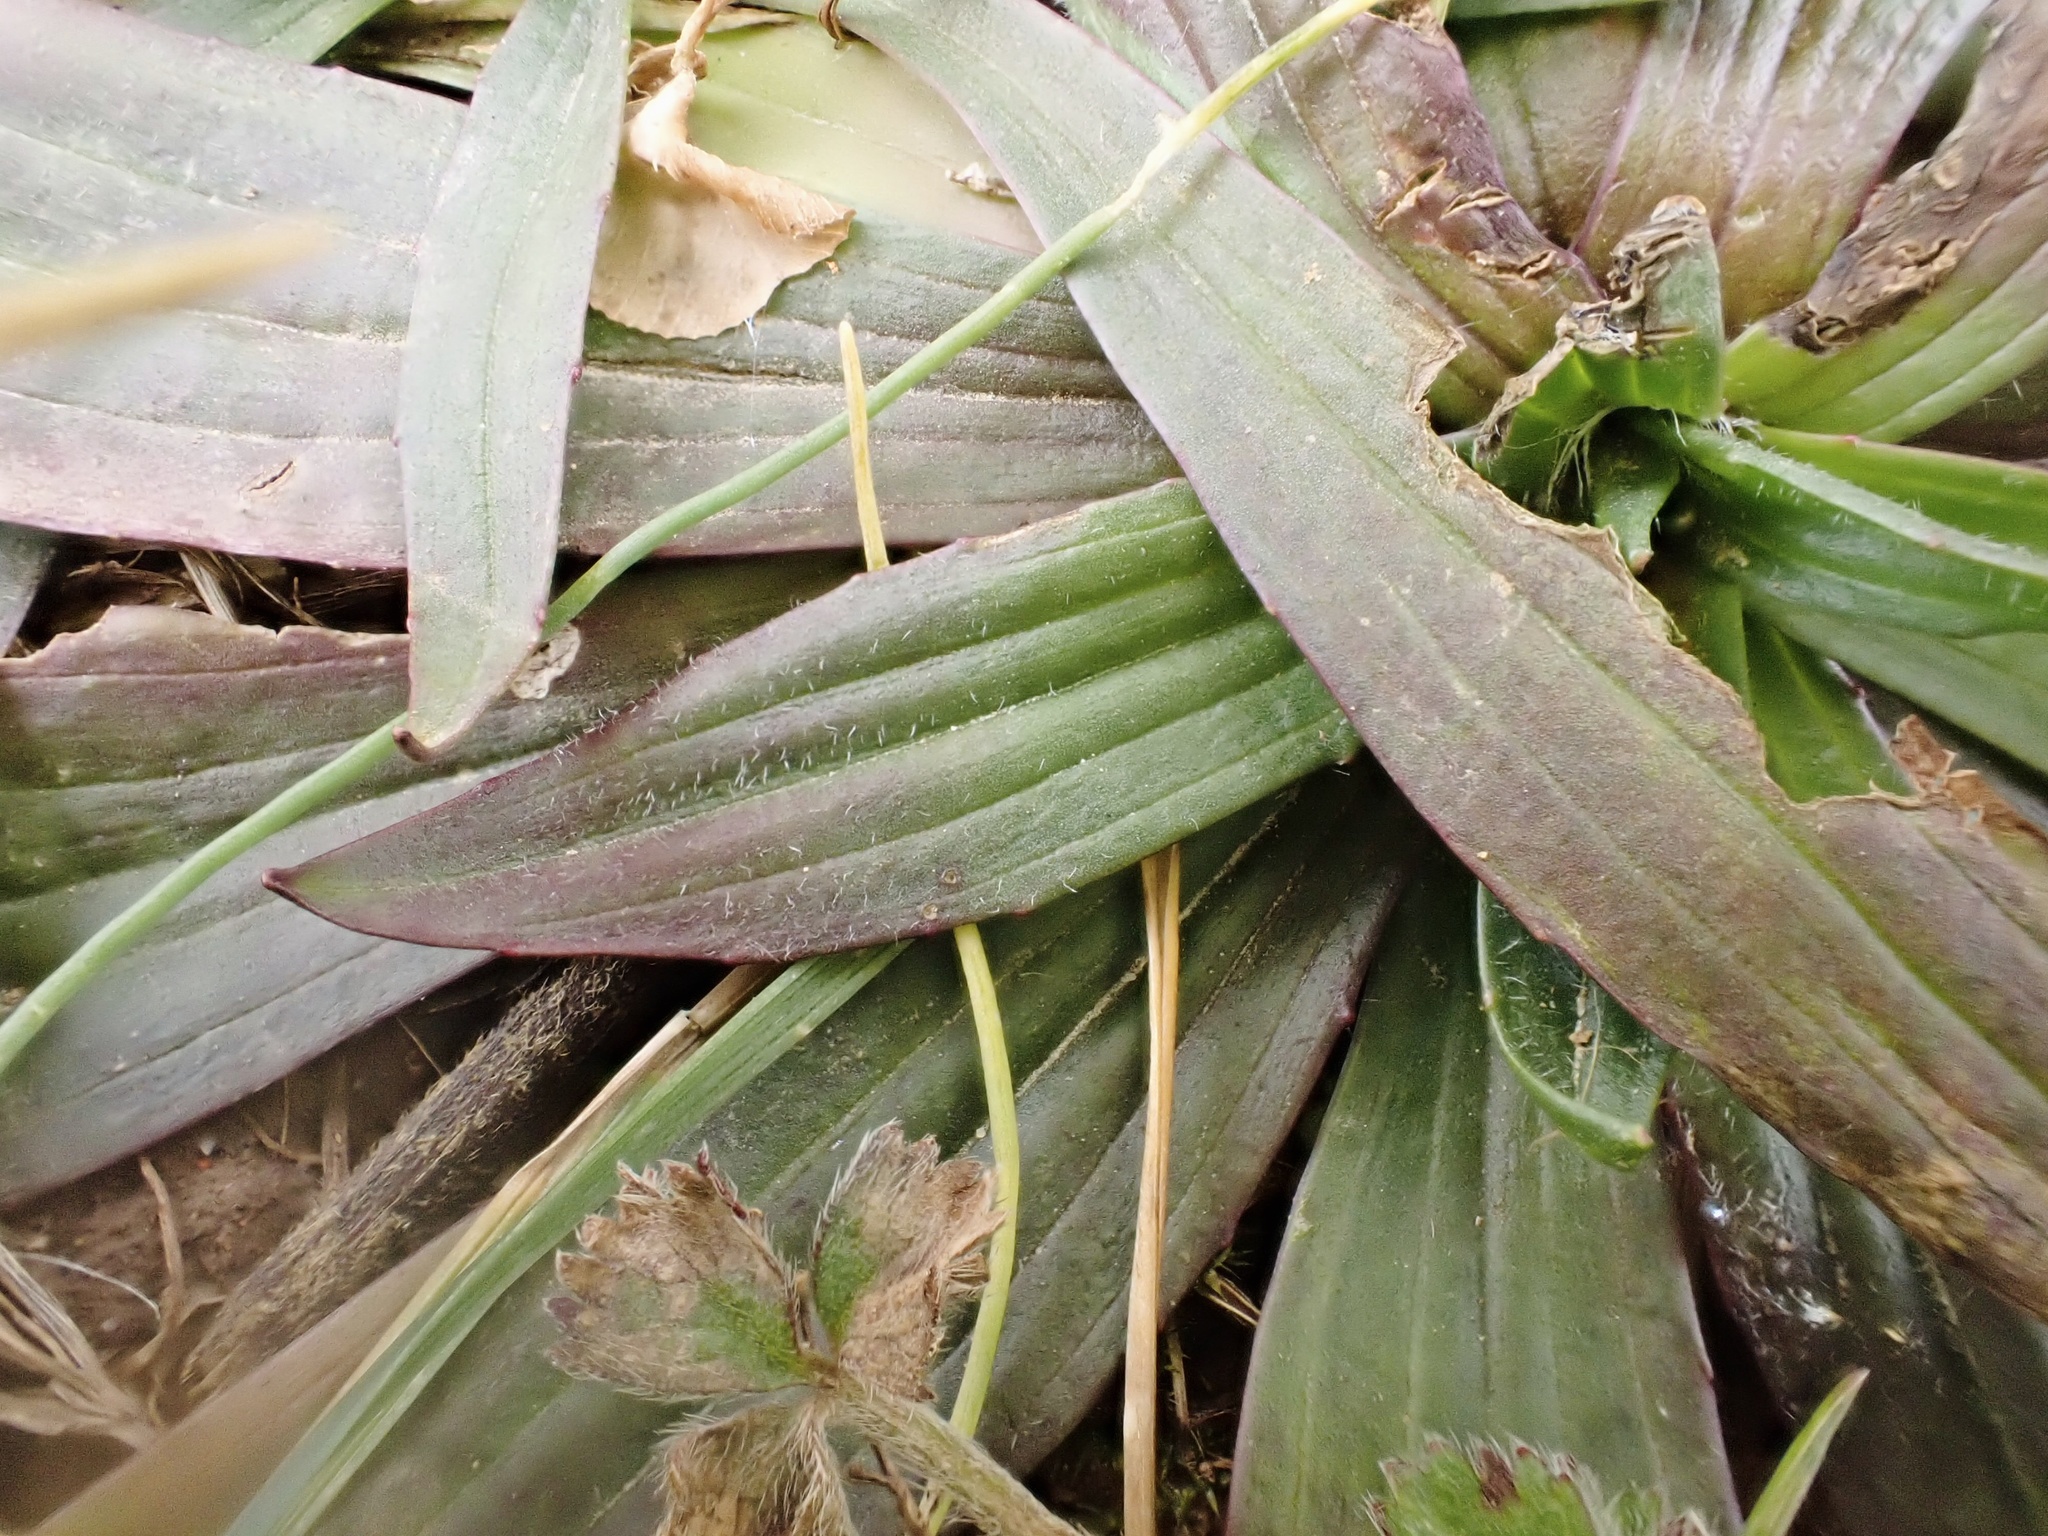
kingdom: Plantae
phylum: Tracheophyta
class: Magnoliopsida
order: Lamiales
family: Plantaginaceae
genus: Plantago
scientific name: Plantago lanceolata
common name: Ribwort plantain
